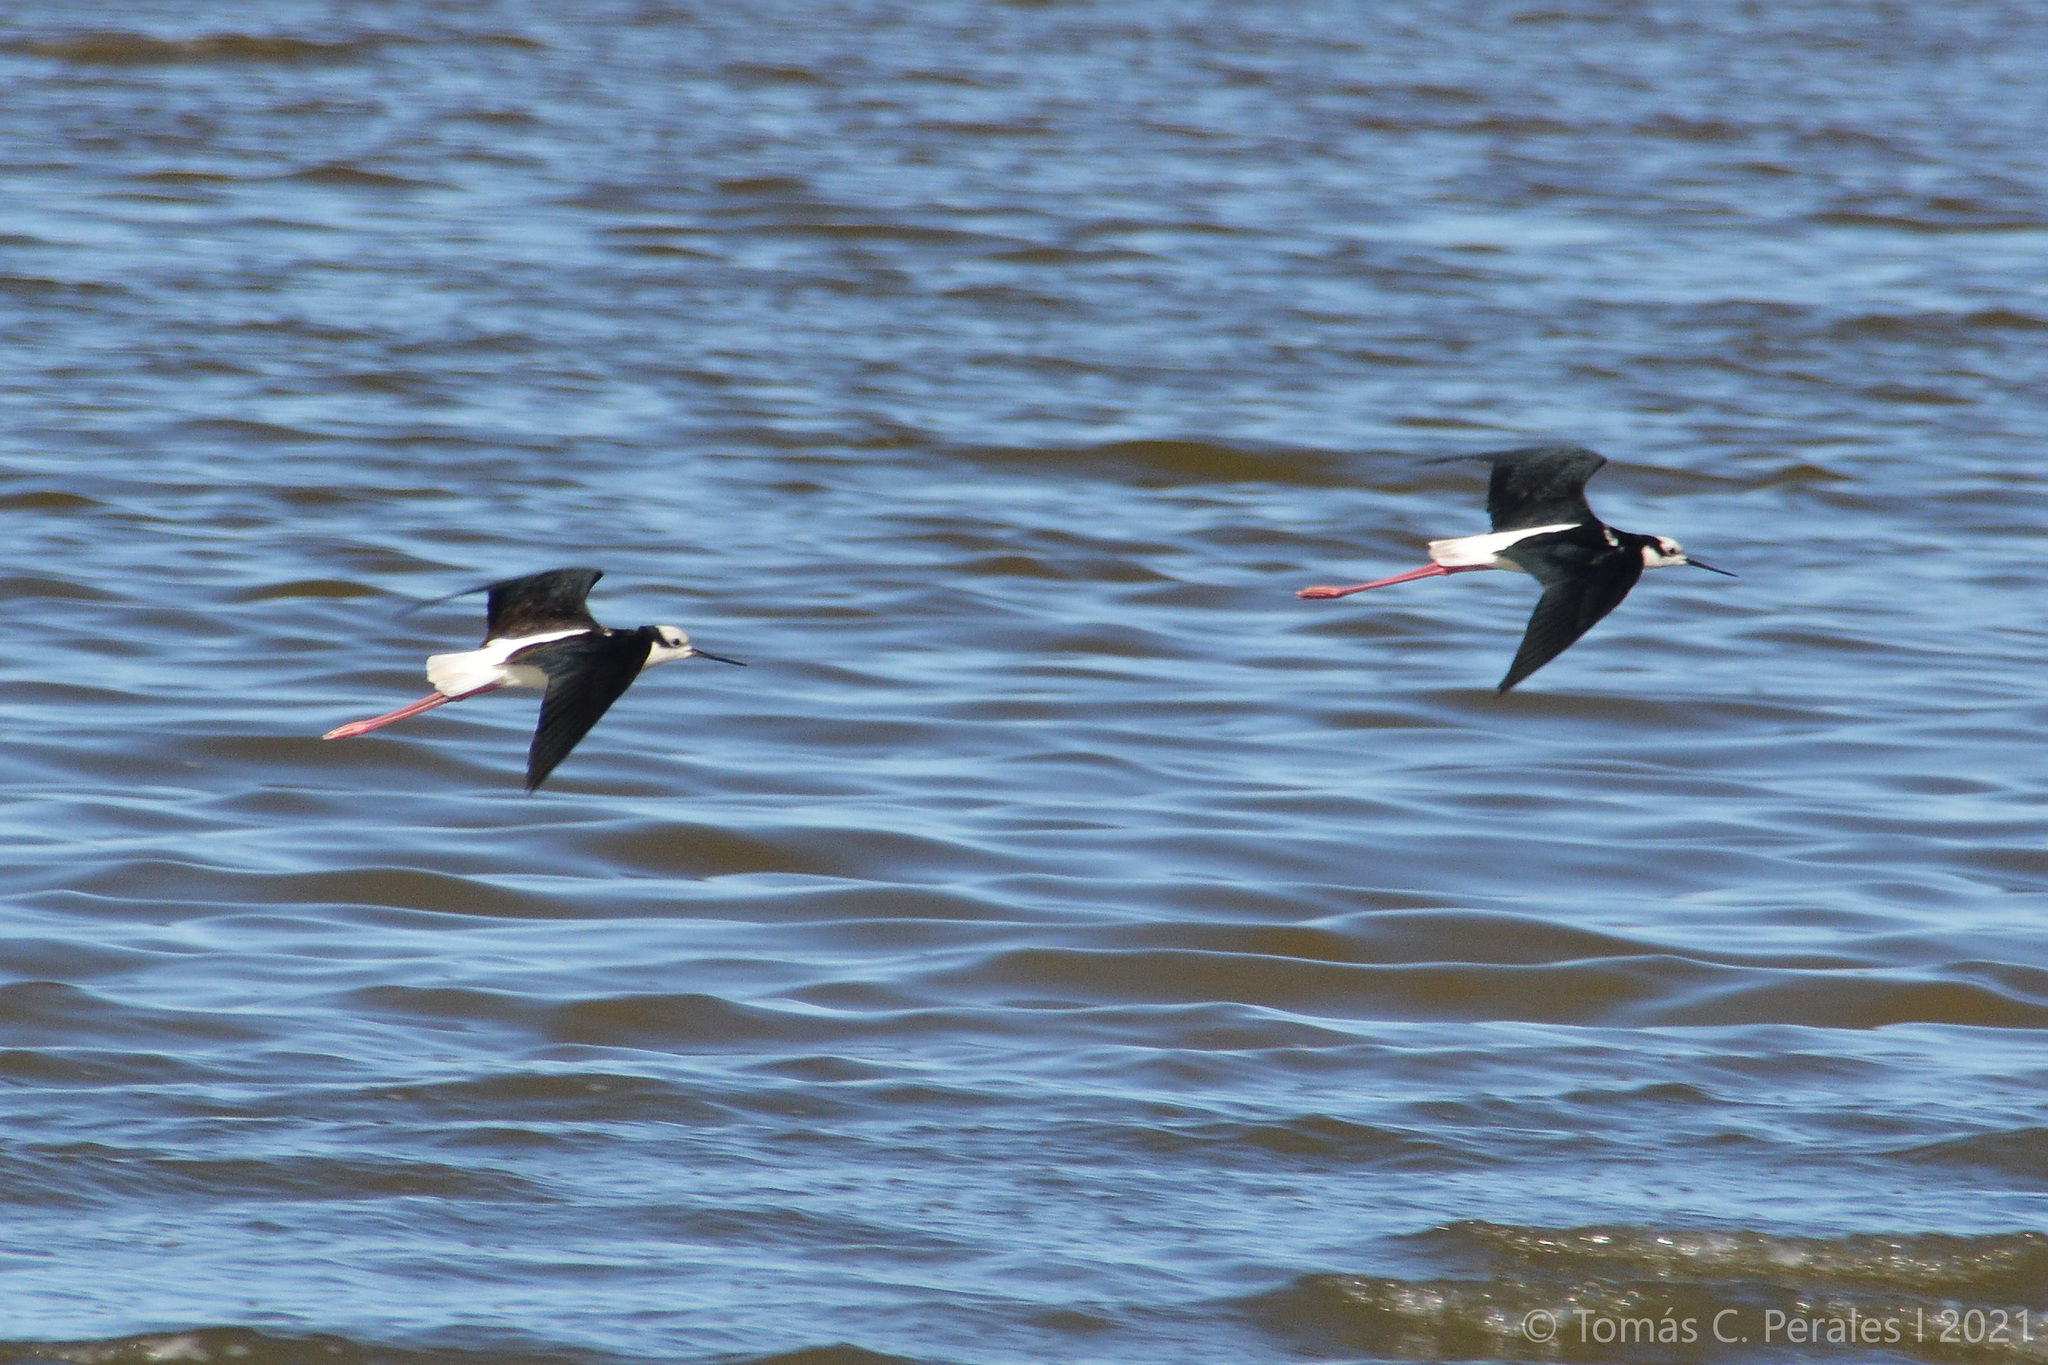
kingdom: Animalia
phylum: Chordata
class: Aves
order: Charadriiformes
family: Recurvirostridae
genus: Himantopus
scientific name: Himantopus mexicanus
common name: Black-necked stilt
